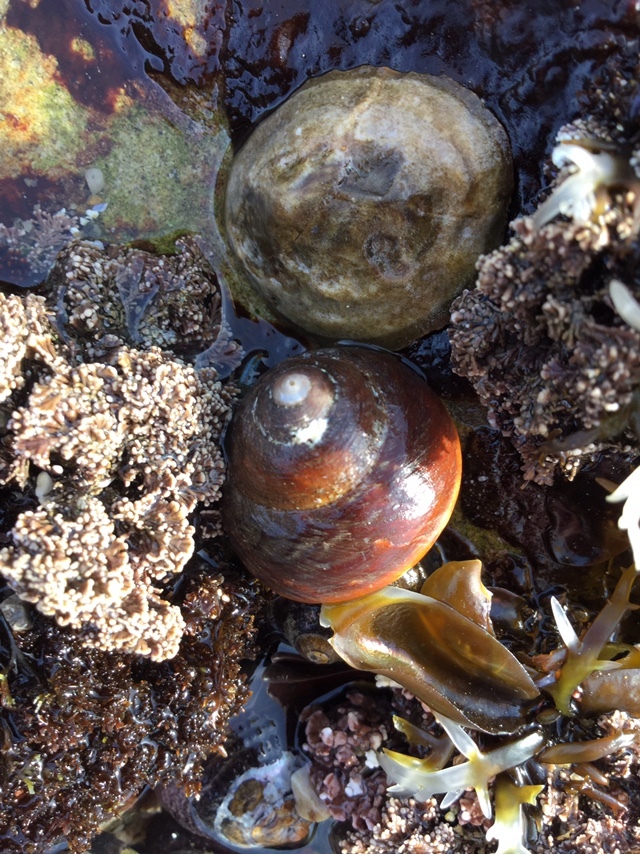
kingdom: Animalia
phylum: Mollusca
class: Gastropoda
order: Trochida
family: Tegulidae
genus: Tegula
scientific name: Tegula brunnea
